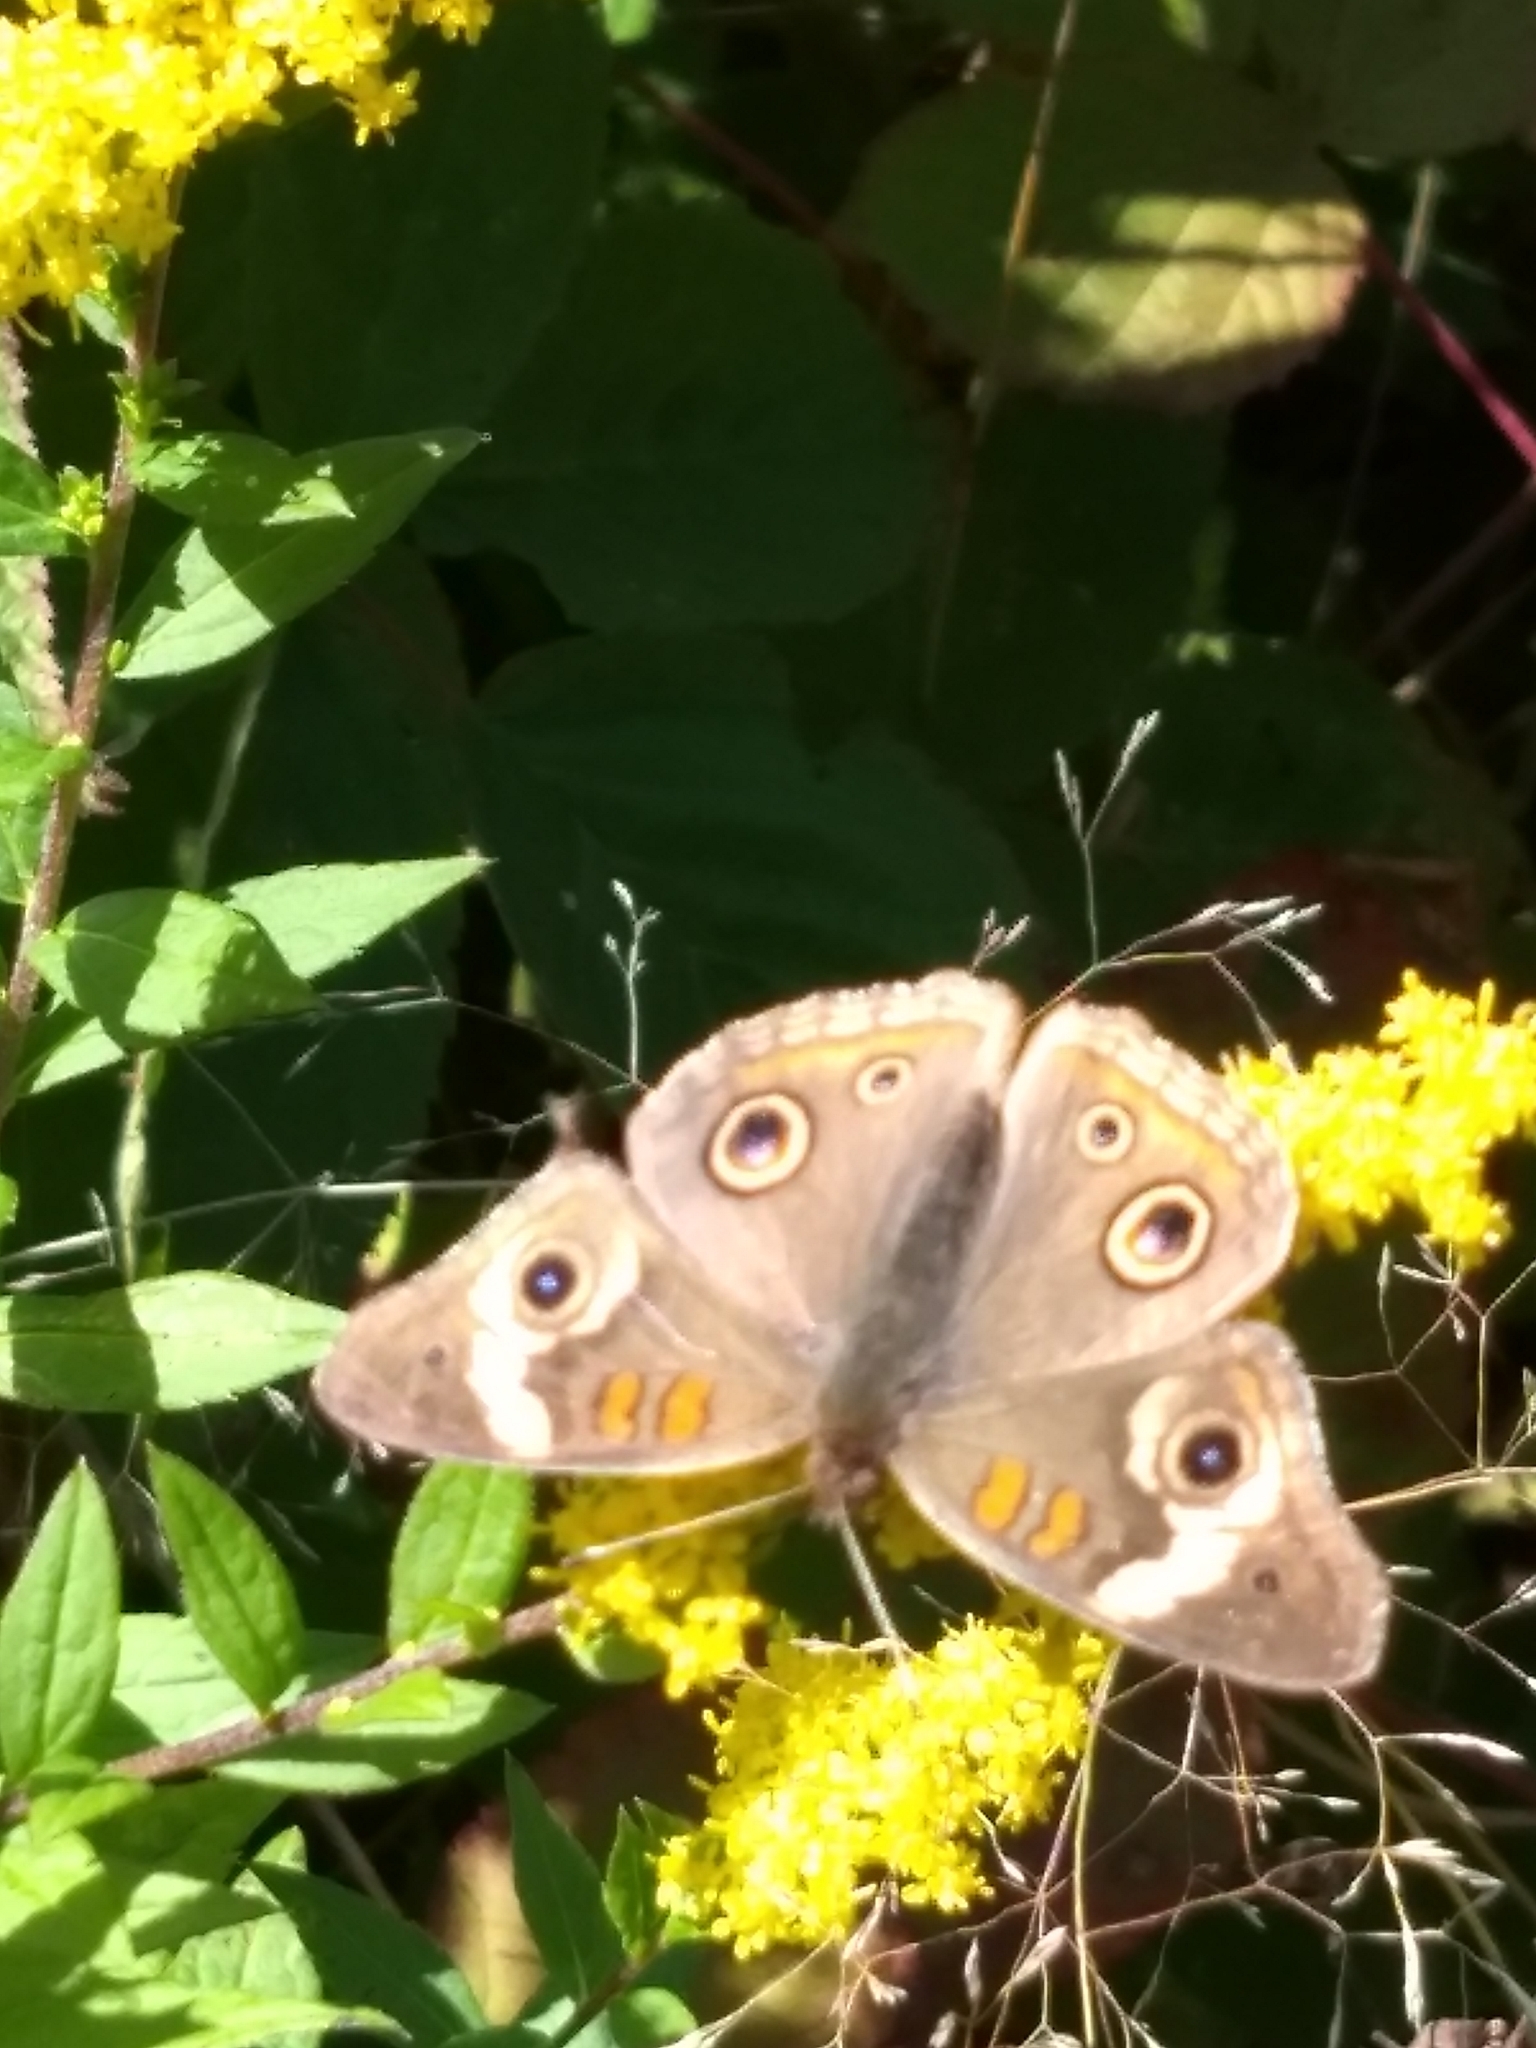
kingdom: Animalia
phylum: Arthropoda
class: Insecta
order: Lepidoptera
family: Nymphalidae
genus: Junonia
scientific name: Junonia coenia
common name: Common buckeye
